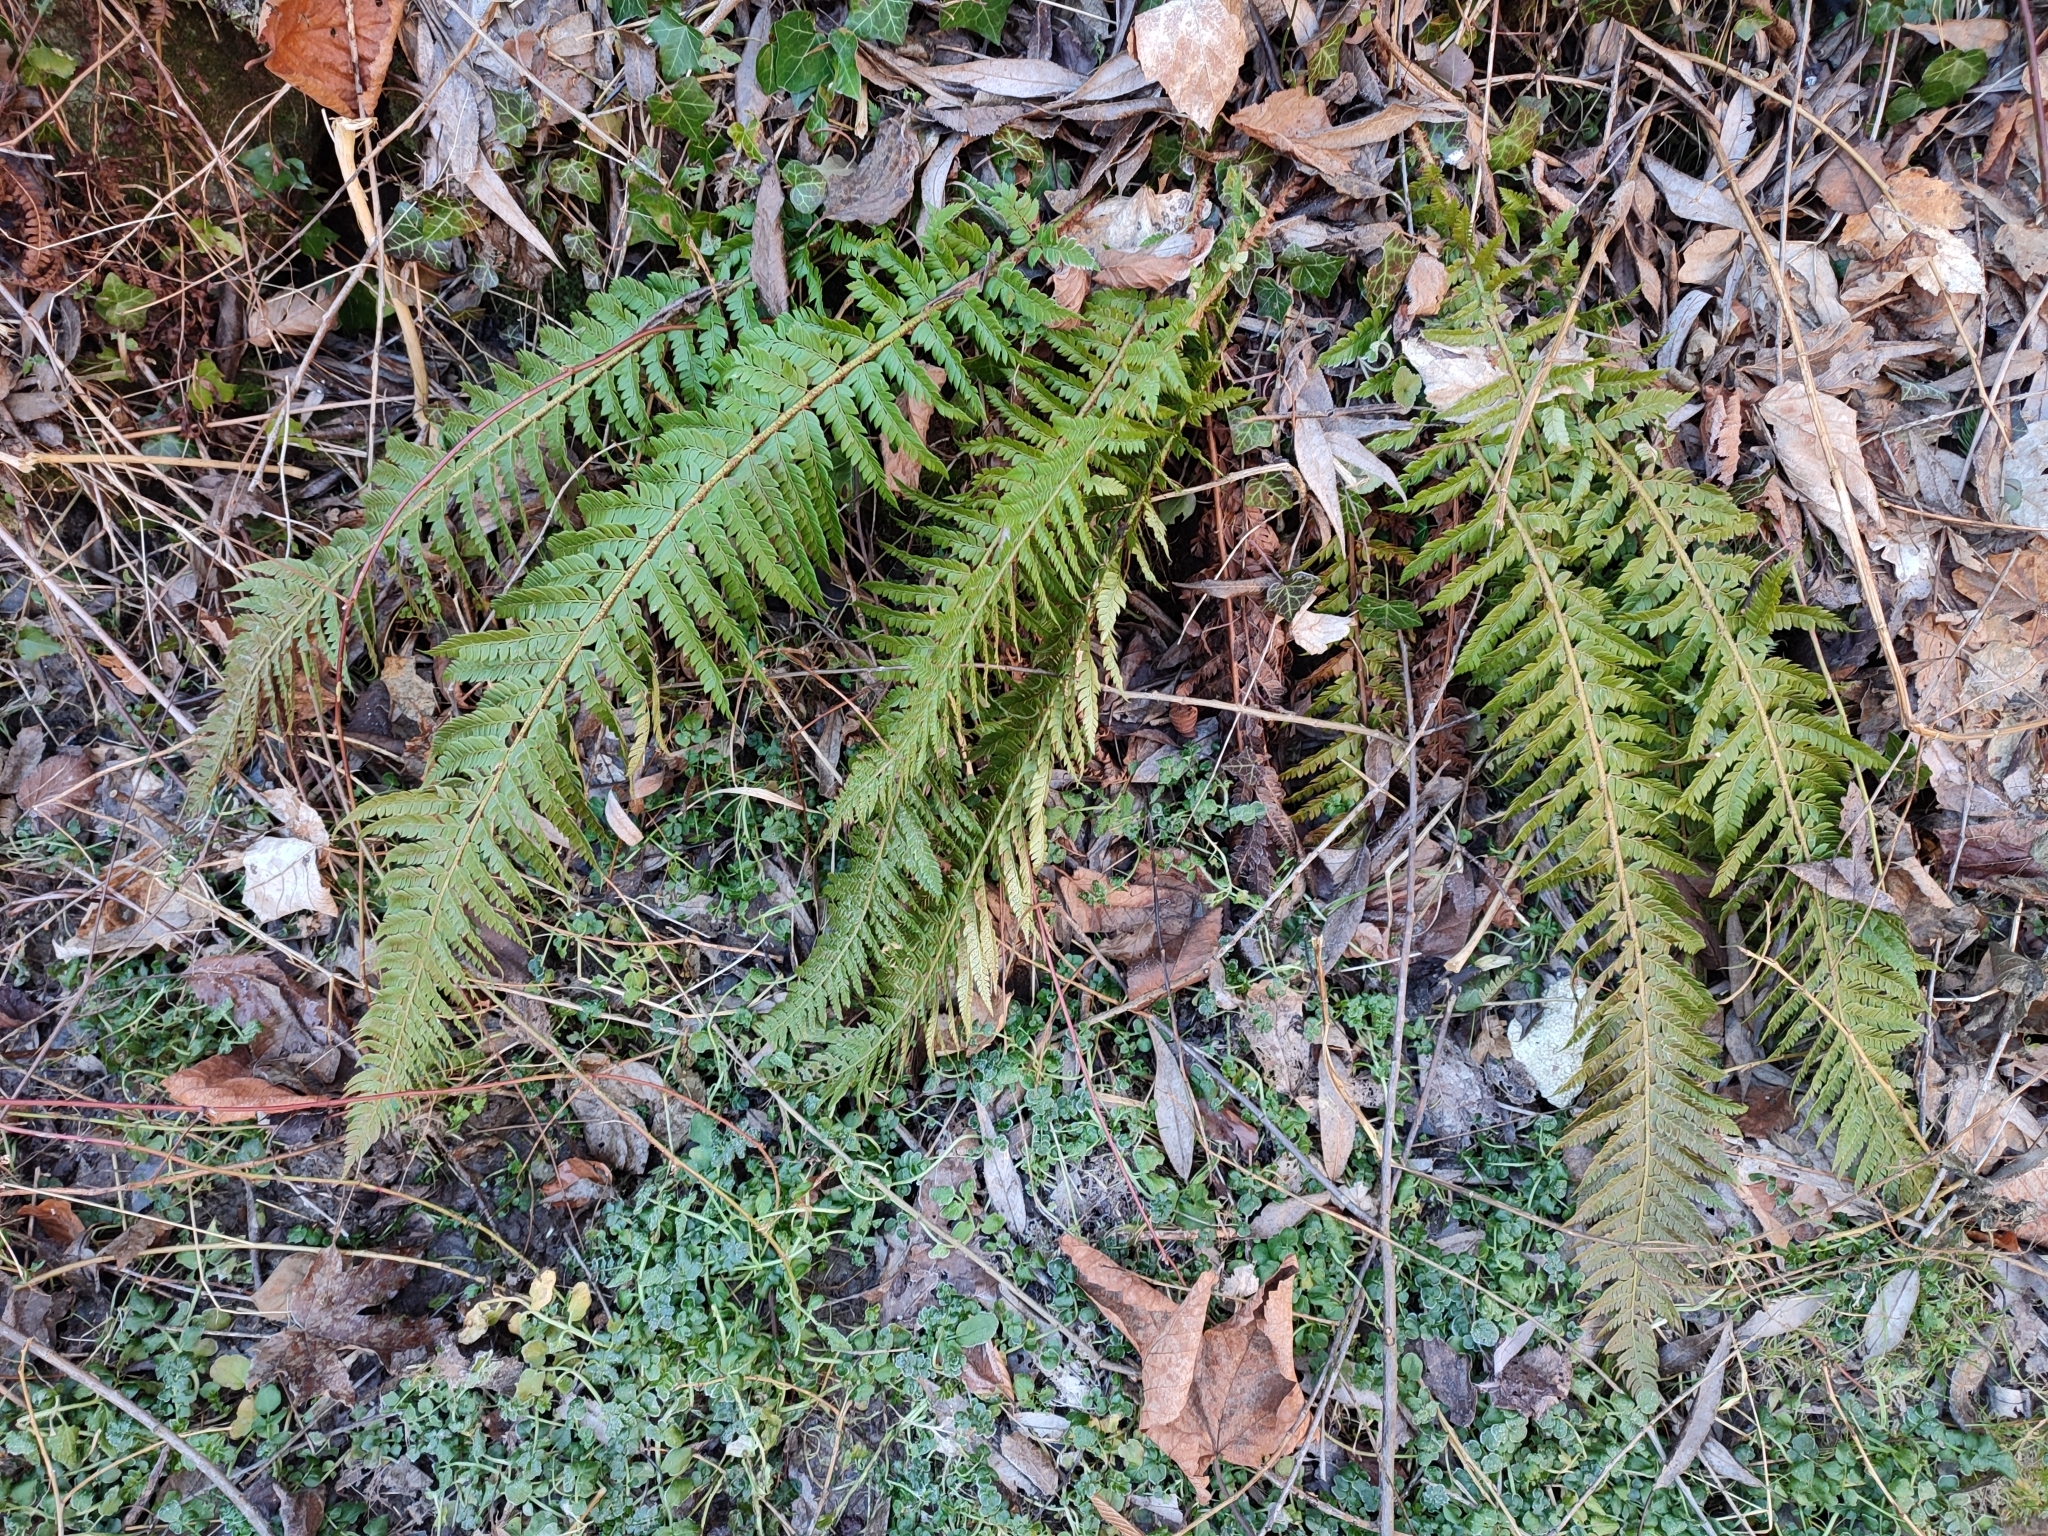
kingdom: Plantae
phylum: Tracheophyta
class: Polypodiopsida
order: Polypodiales
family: Dryopteridaceae
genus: Polystichum
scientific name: Polystichum aculeatum
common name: Hard shield-fern
